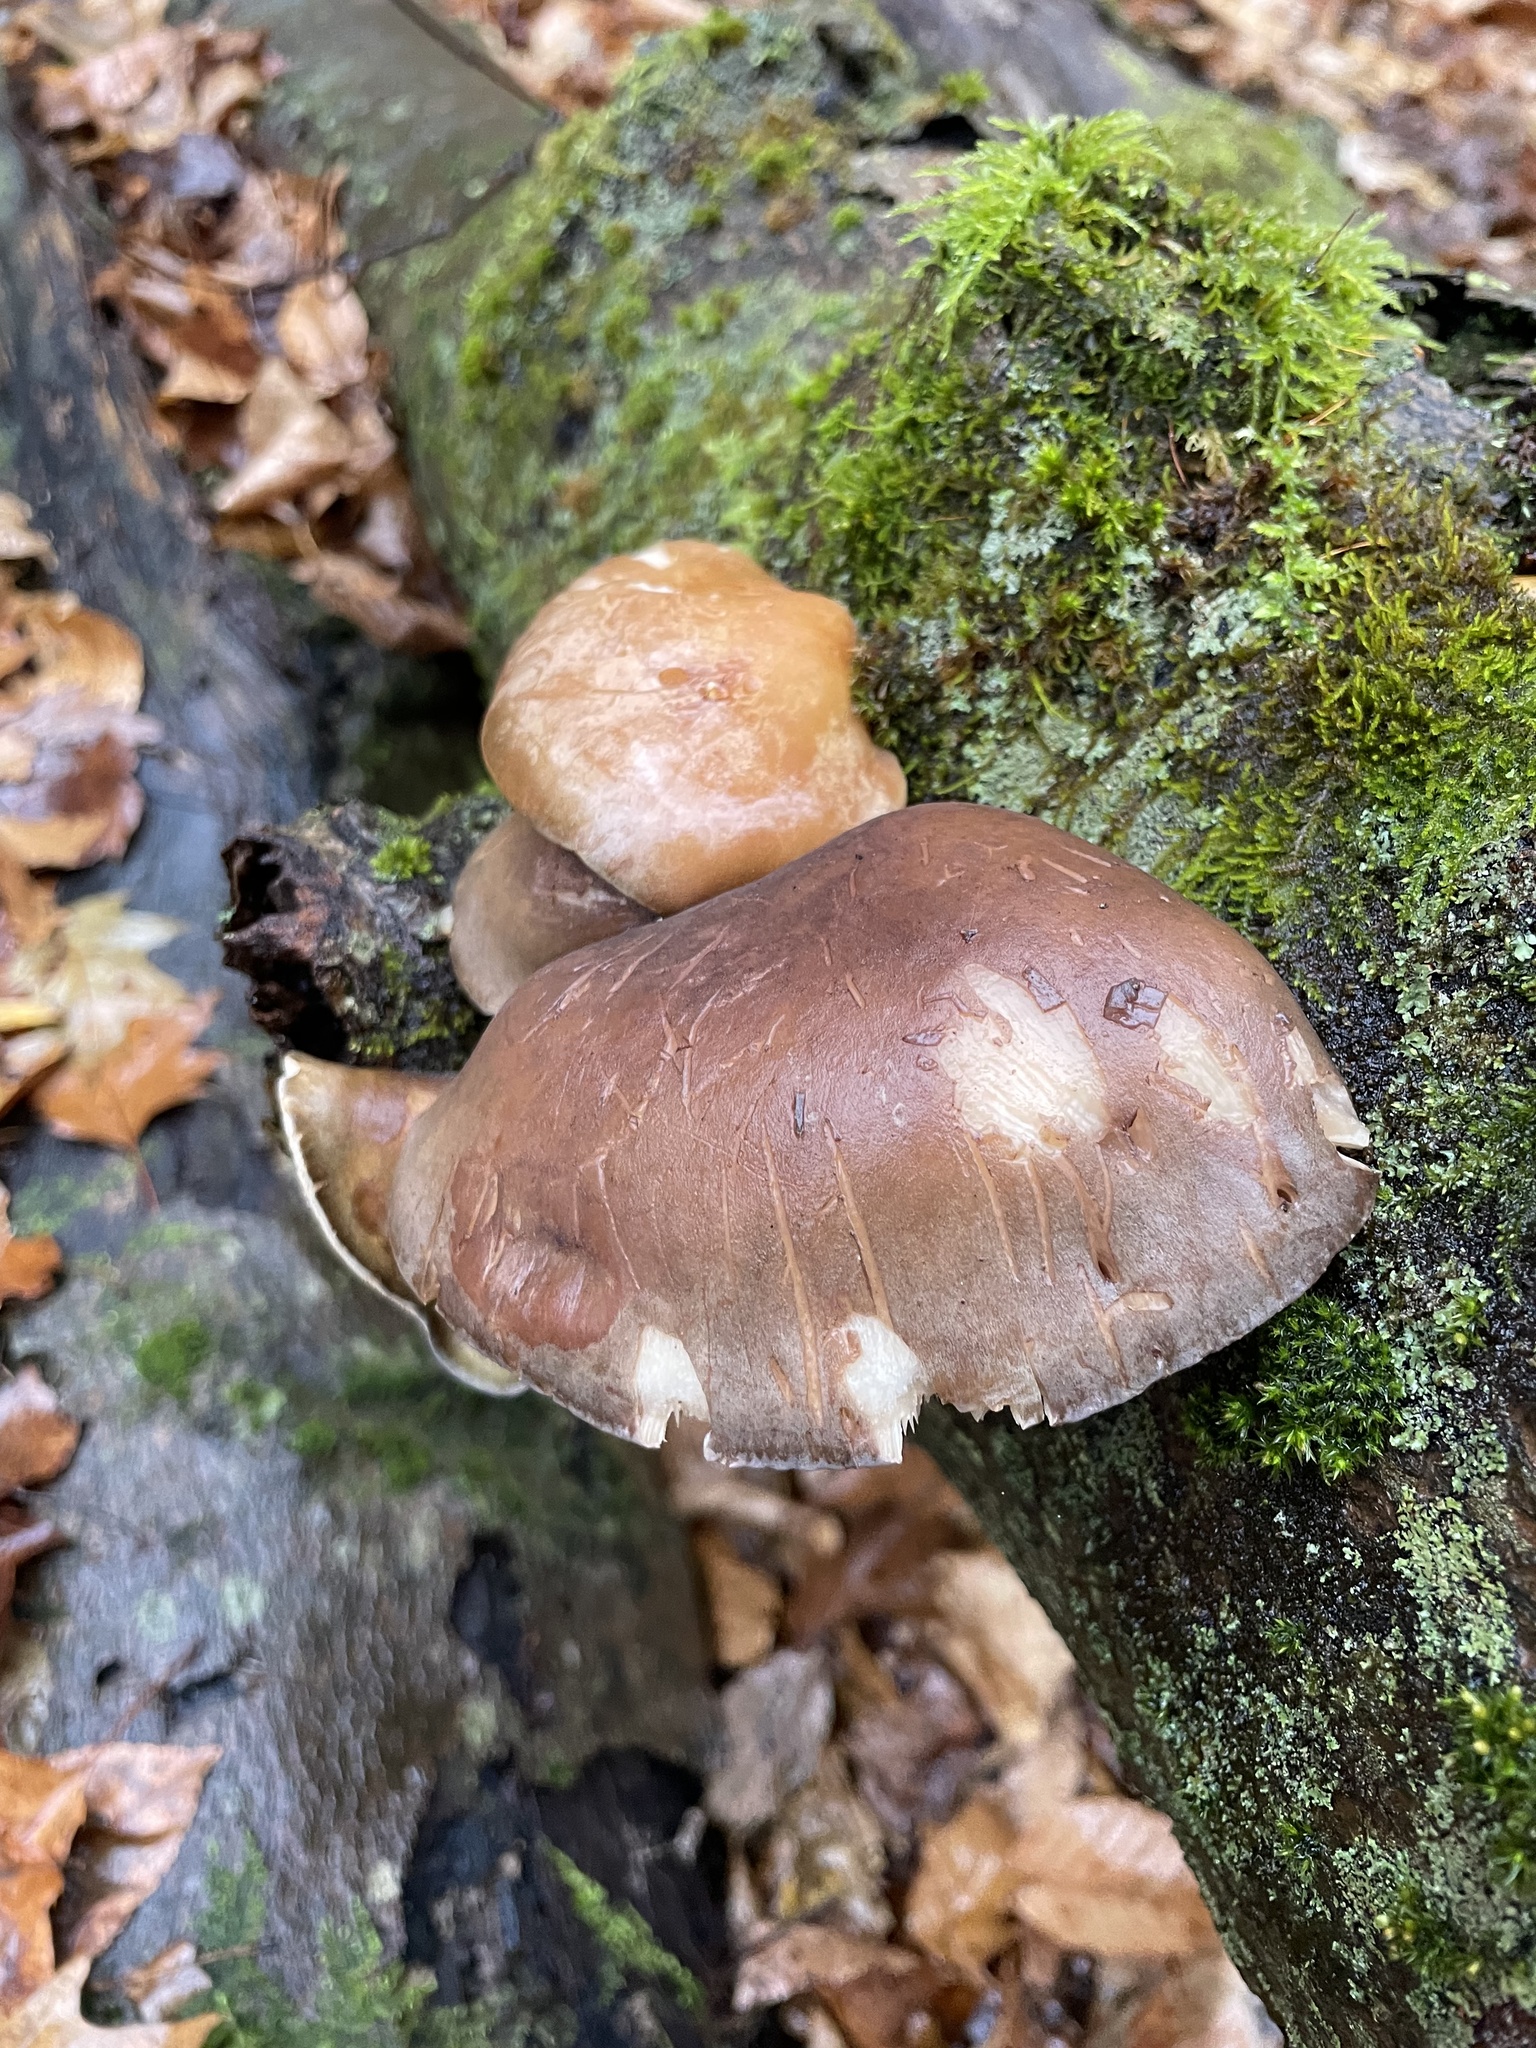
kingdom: Fungi
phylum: Basidiomycota
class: Agaricomycetes
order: Agaricales
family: Sarcomyxaceae
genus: Sarcomyxa
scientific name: Sarcomyxa serotina
